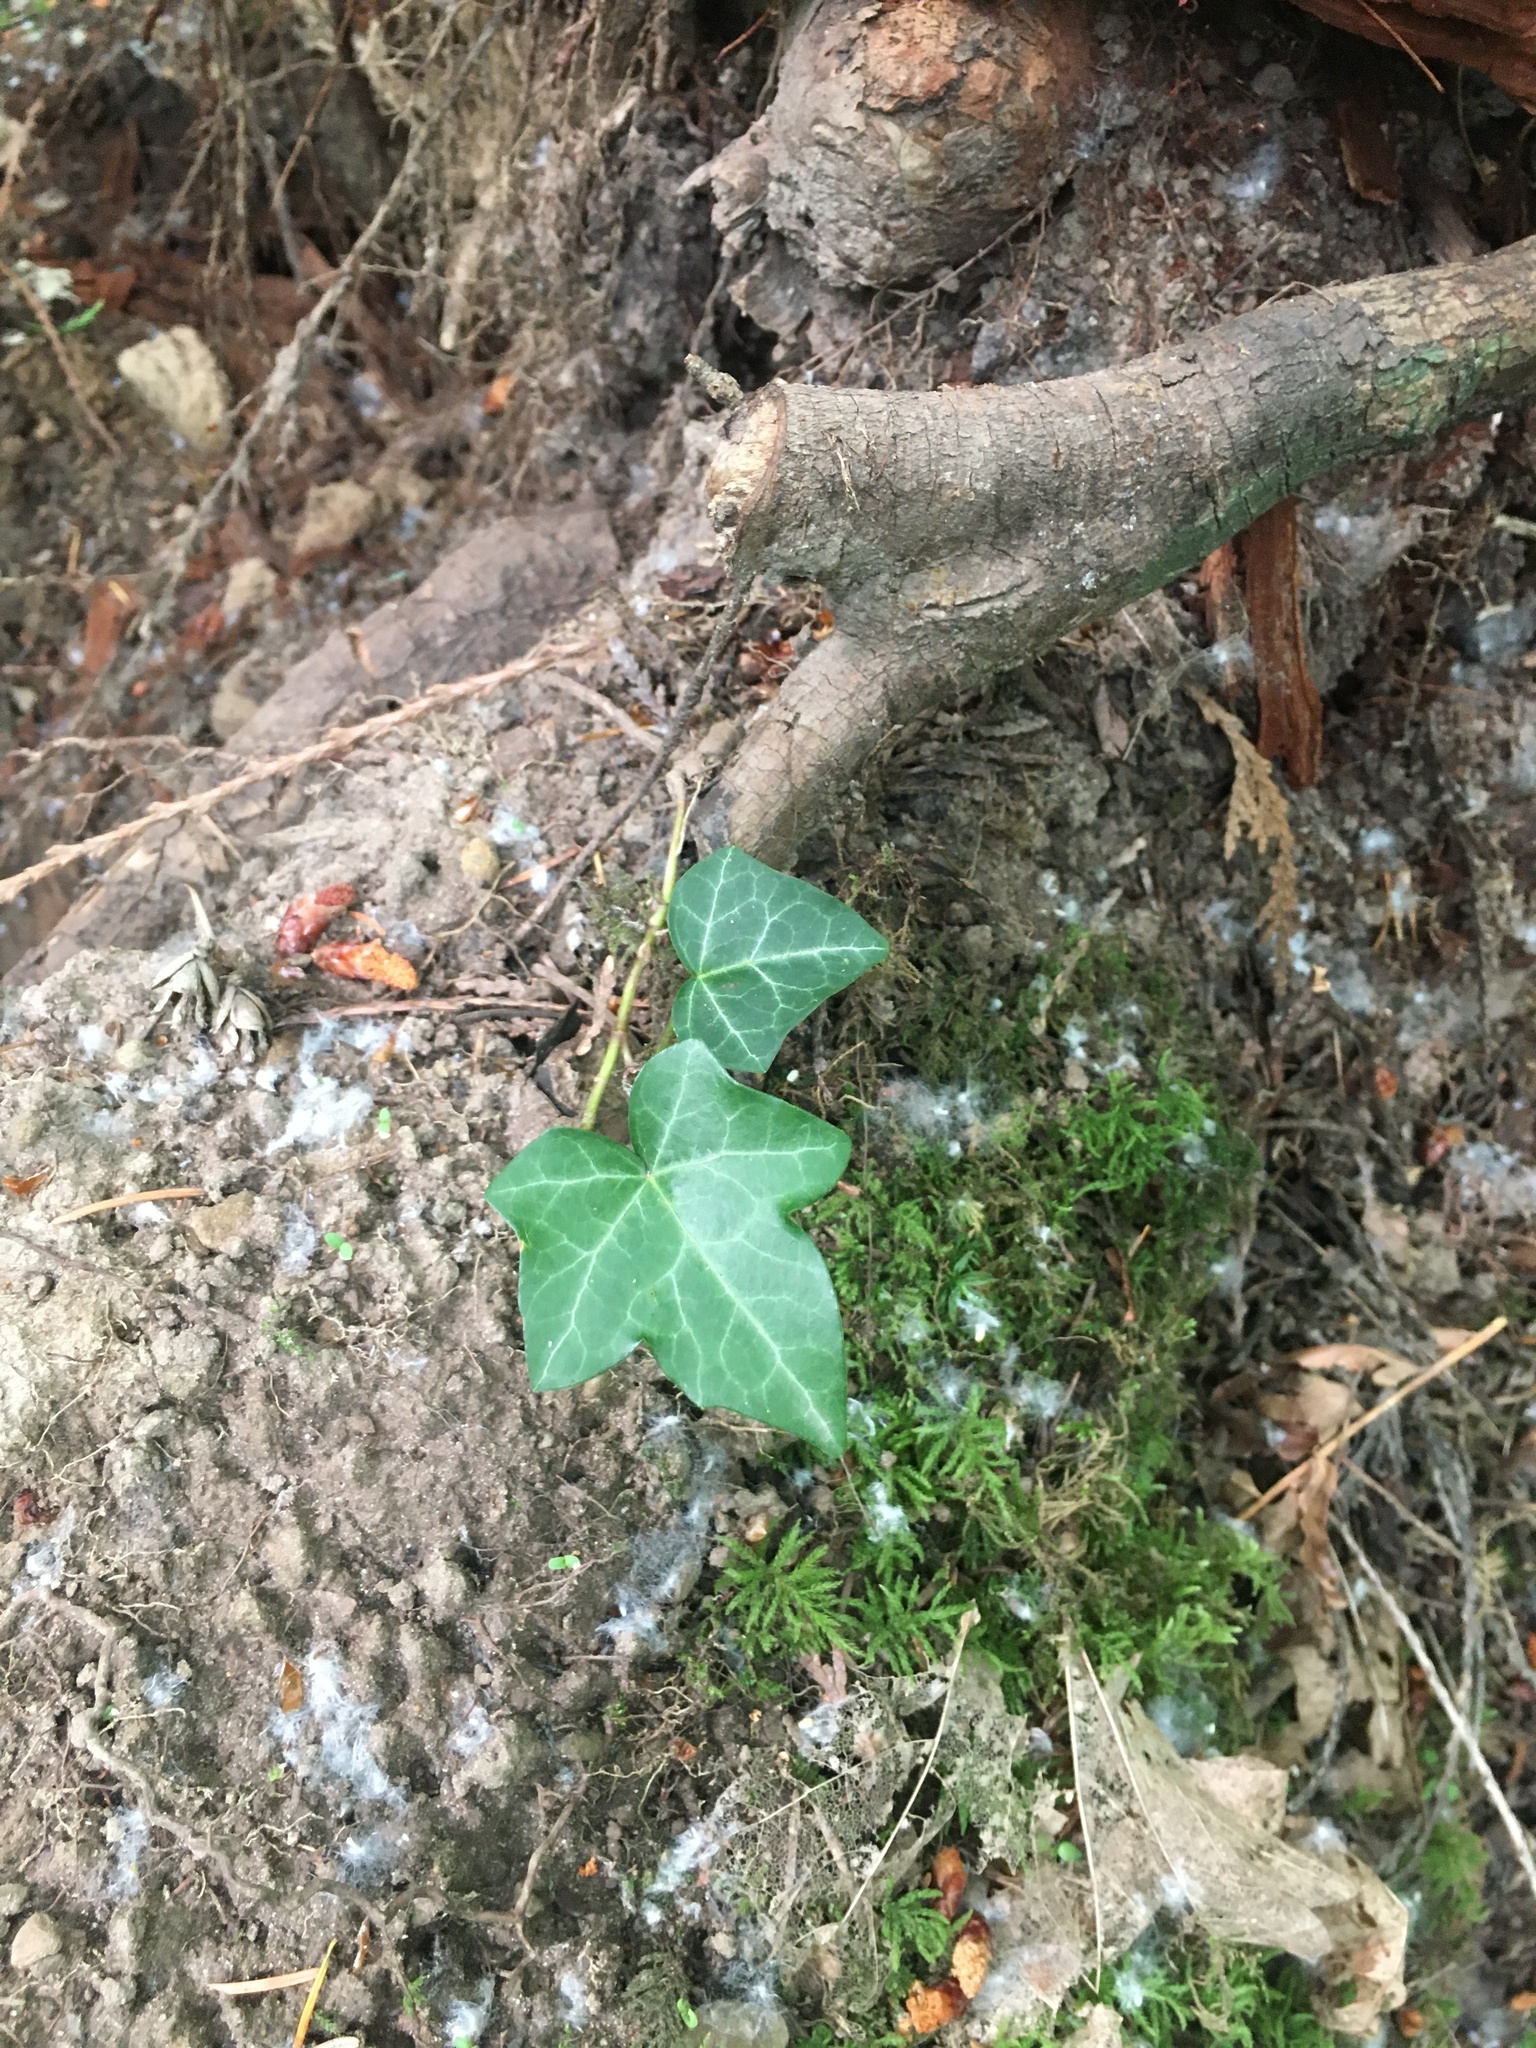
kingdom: Plantae
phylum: Tracheophyta
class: Magnoliopsida
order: Apiales
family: Araliaceae
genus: Hedera
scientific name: Hedera helix
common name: Ivy
